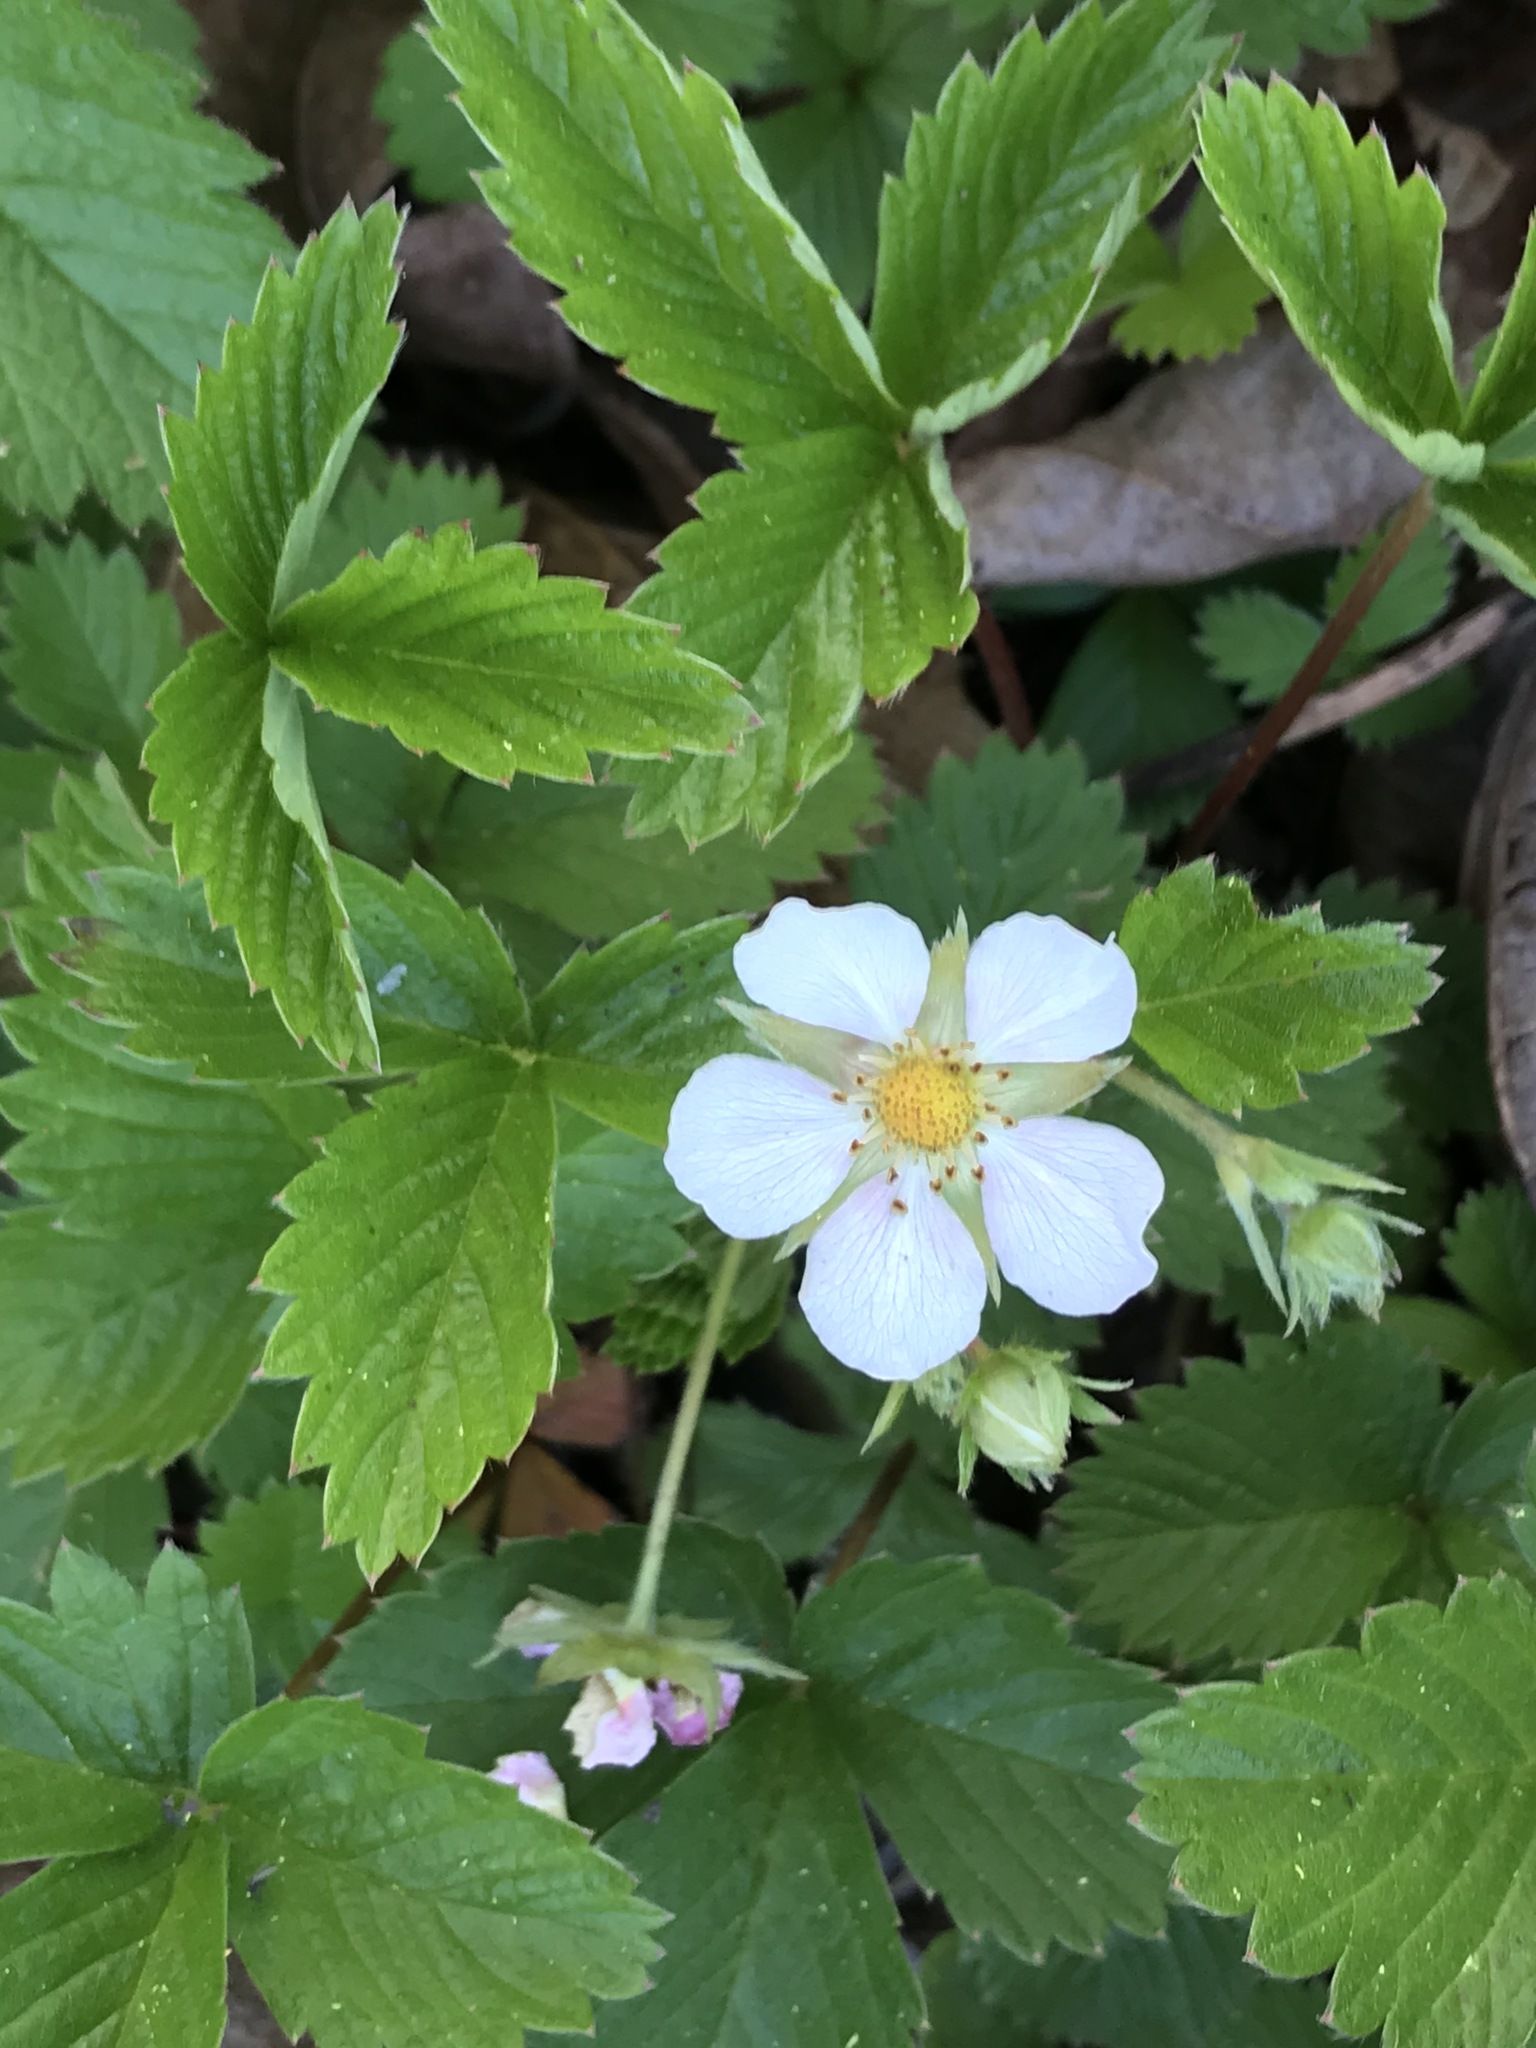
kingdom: Plantae
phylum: Tracheophyta
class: Magnoliopsida
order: Rosales
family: Rosaceae
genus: Fragaria
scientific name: Fragaria vesca
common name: Wild strawberry
